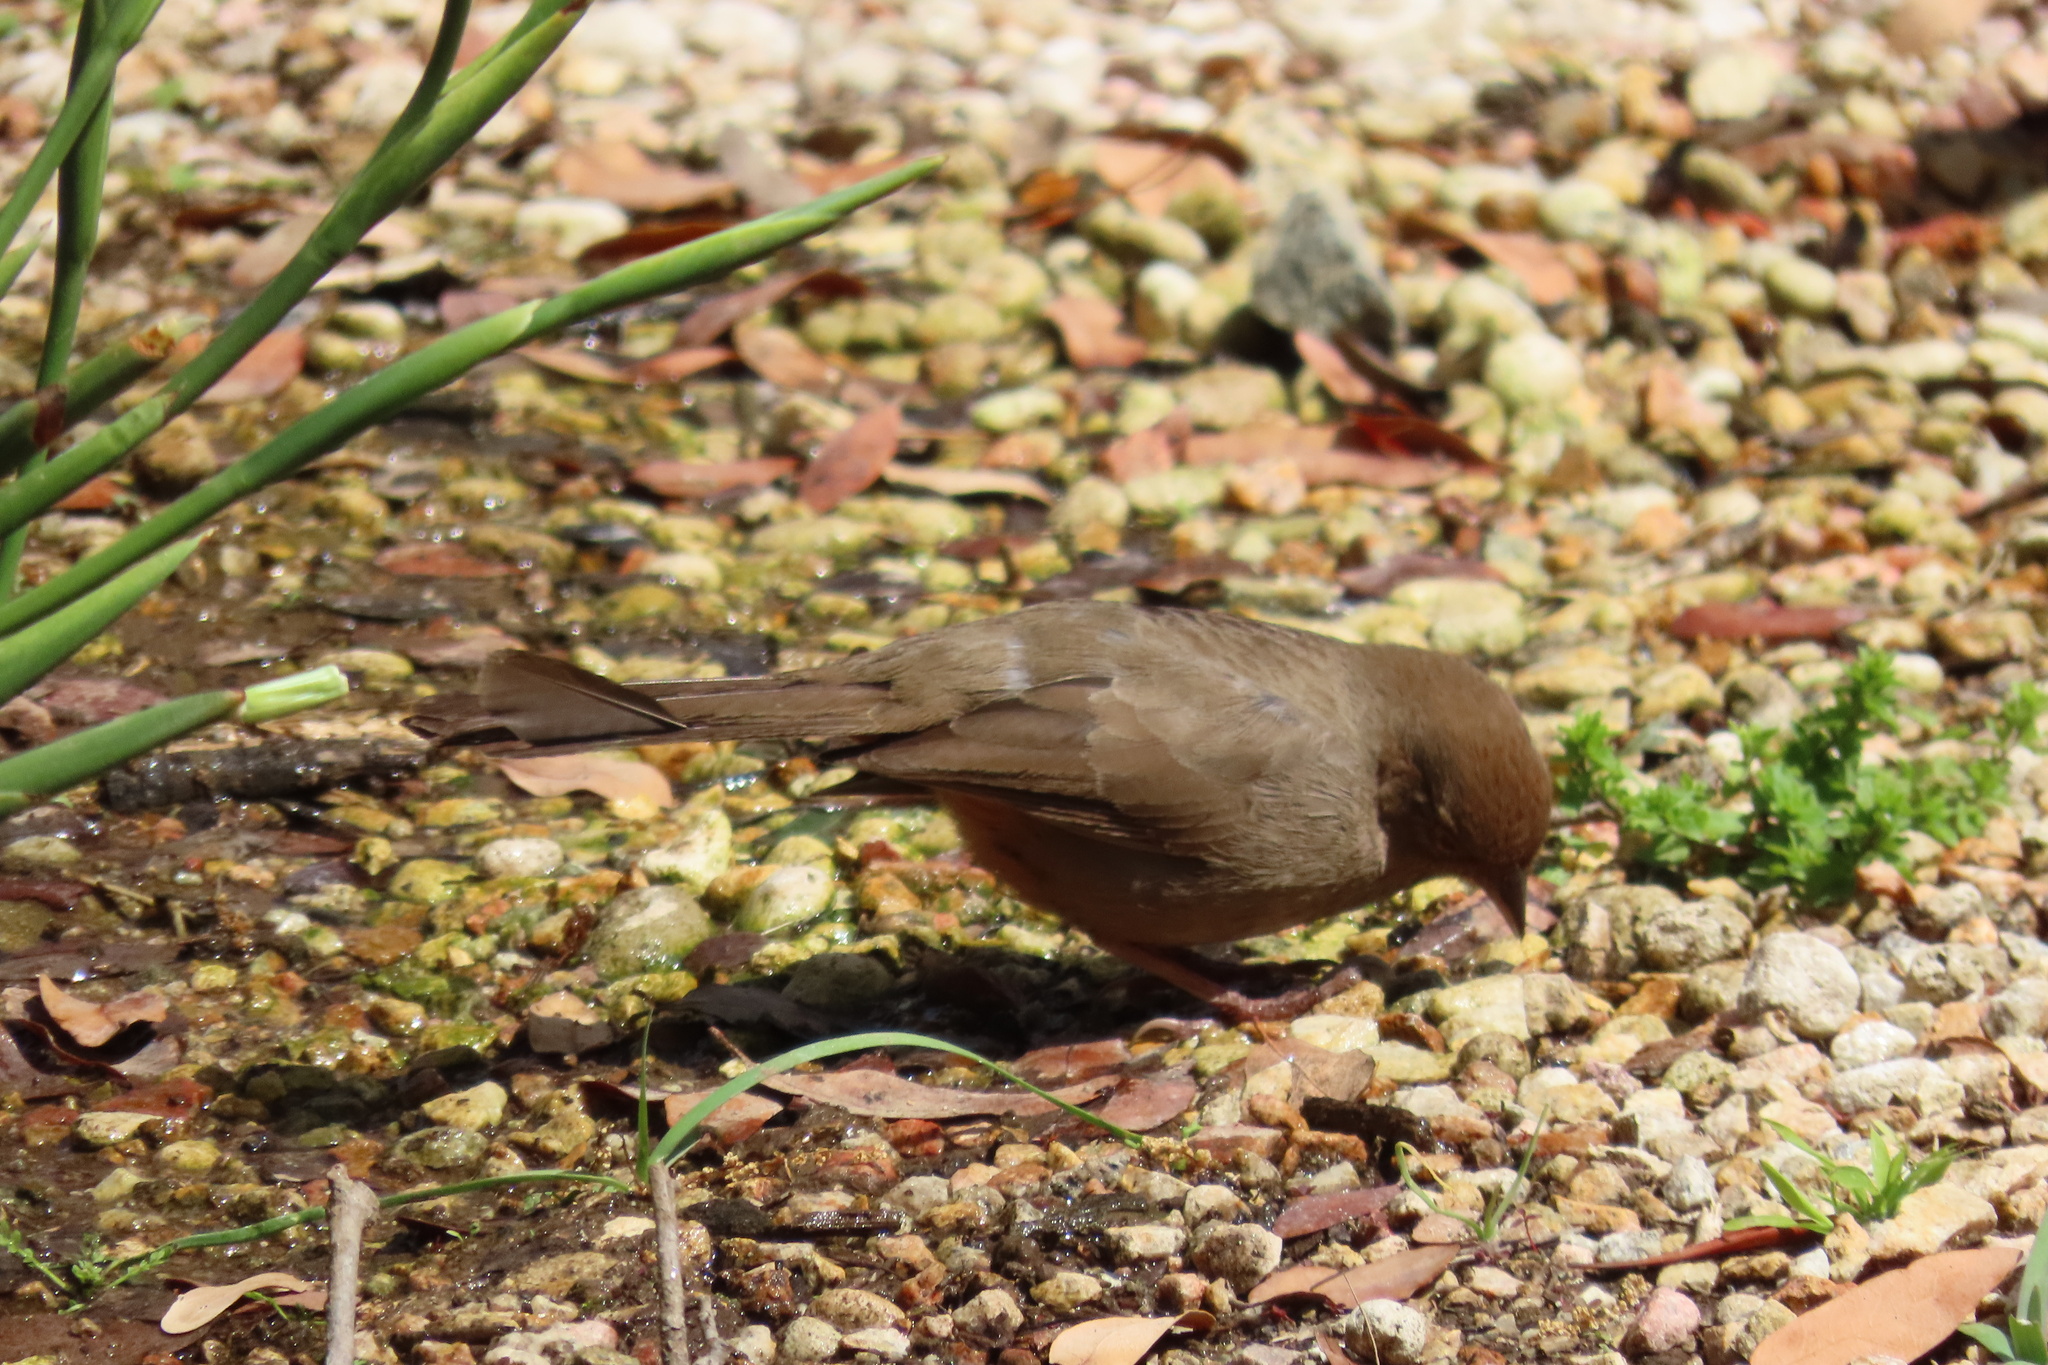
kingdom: Animalia
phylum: Chordata
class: Aves
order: Passeriformes
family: Passerellidae
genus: Melozone
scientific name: Melozone crissalis
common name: California towhee
